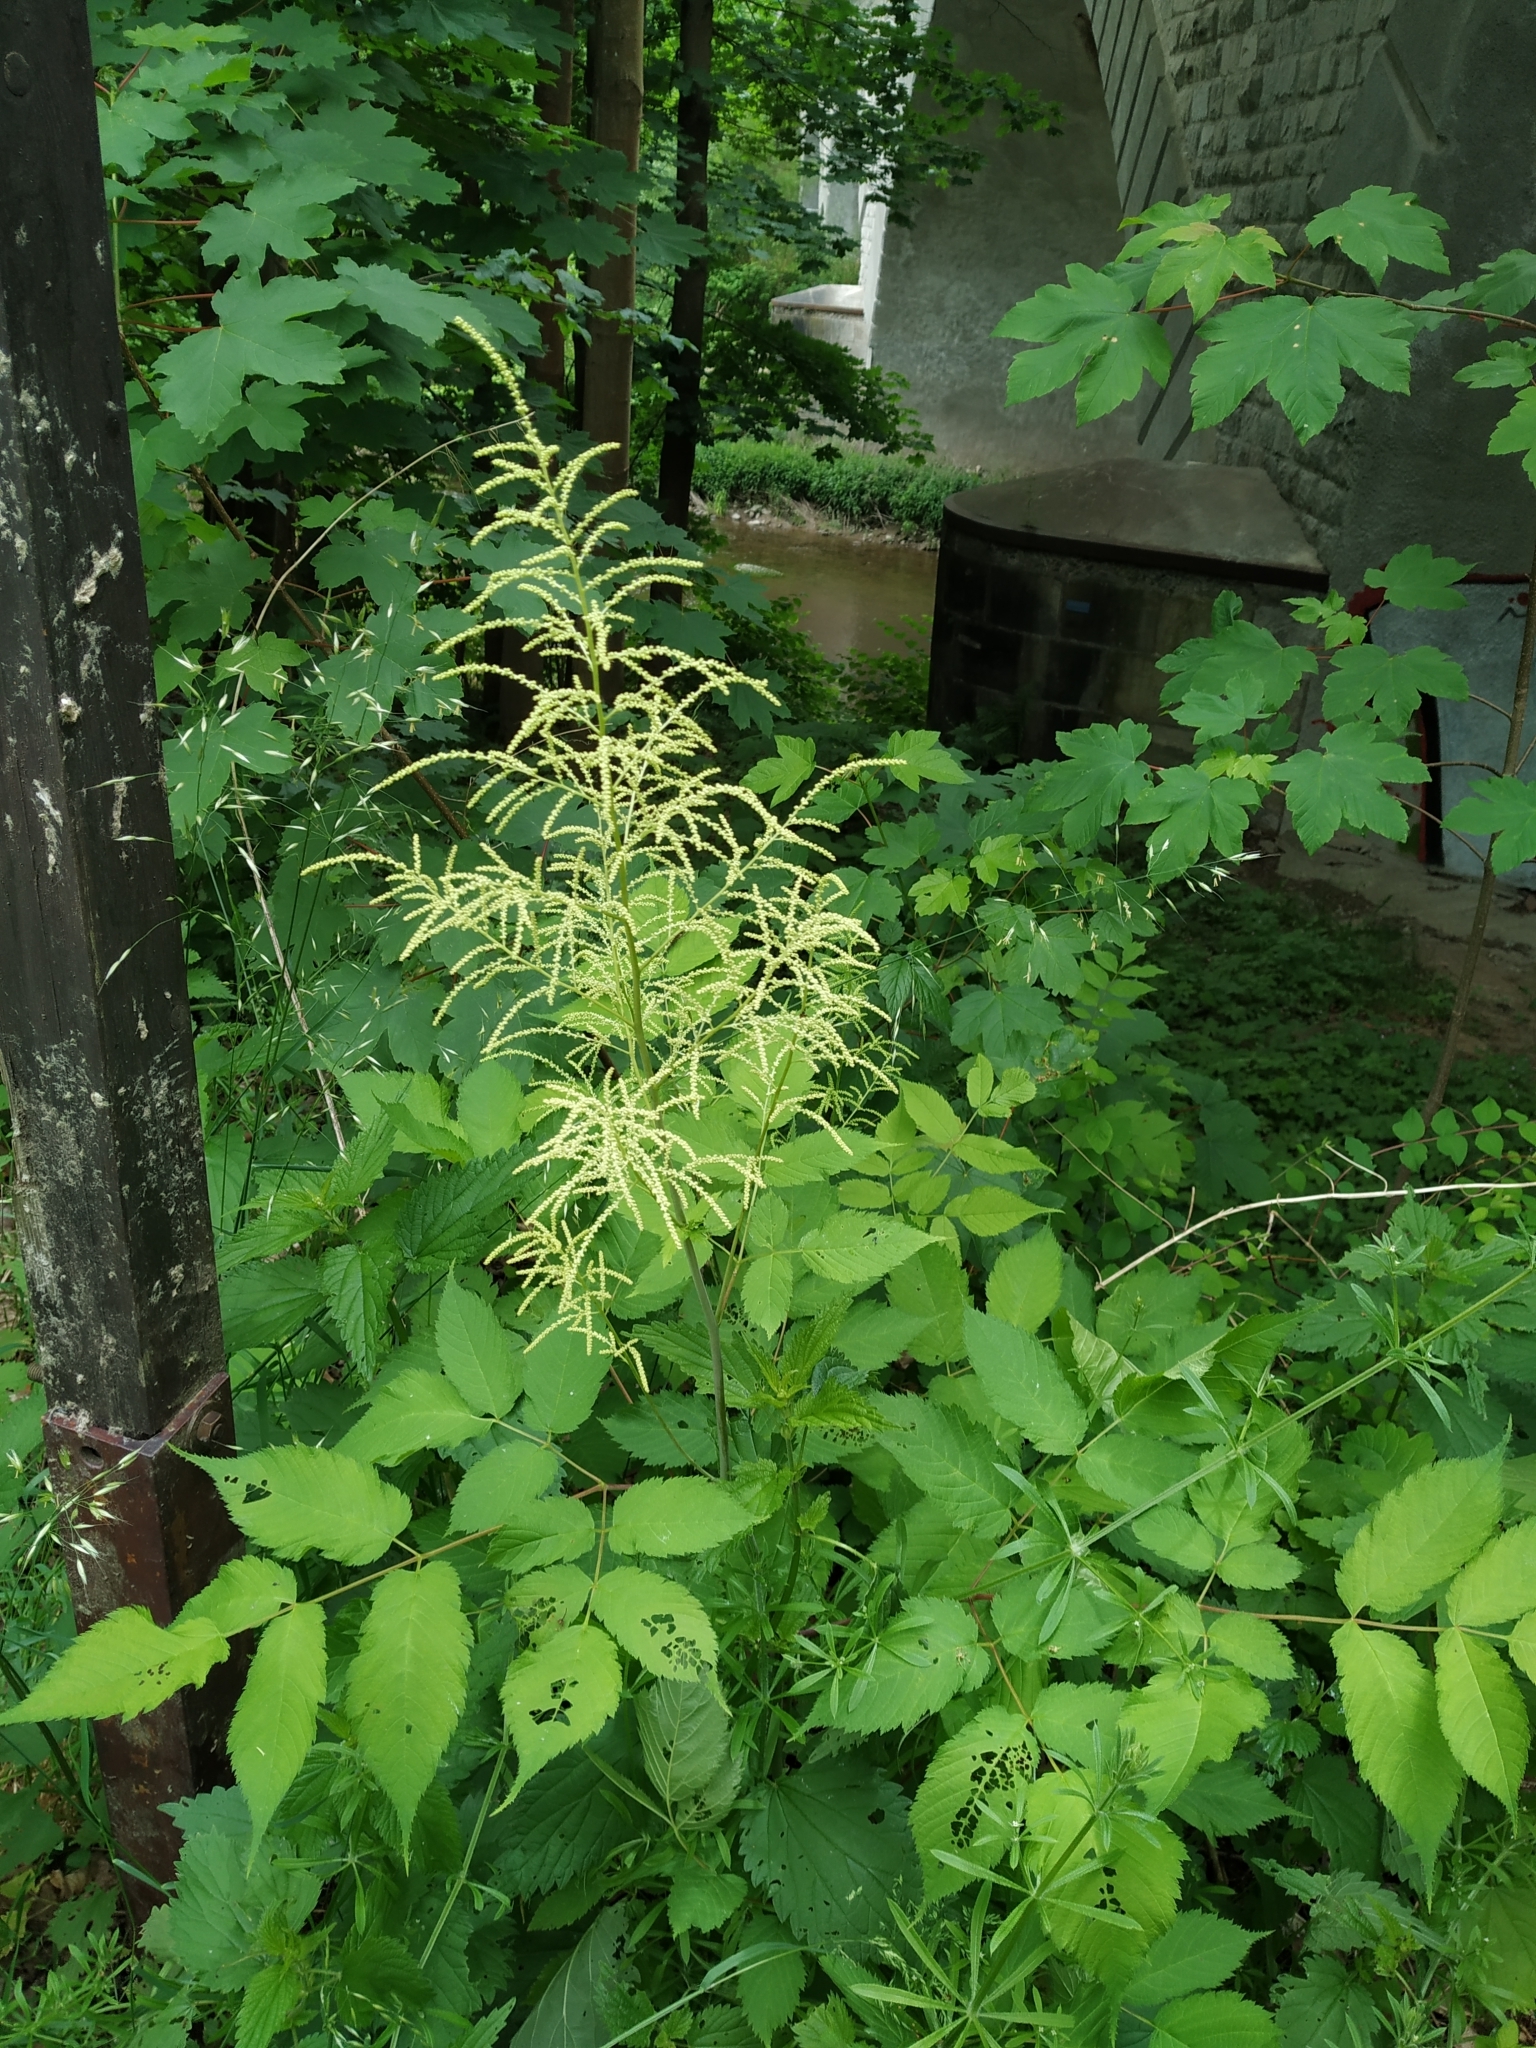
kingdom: Plantae
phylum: Tracheophyta
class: Magnoliopsida
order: Rosales
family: Rosaceae
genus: Aruncus
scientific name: Aruncus dioicus
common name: Buck's-beard
